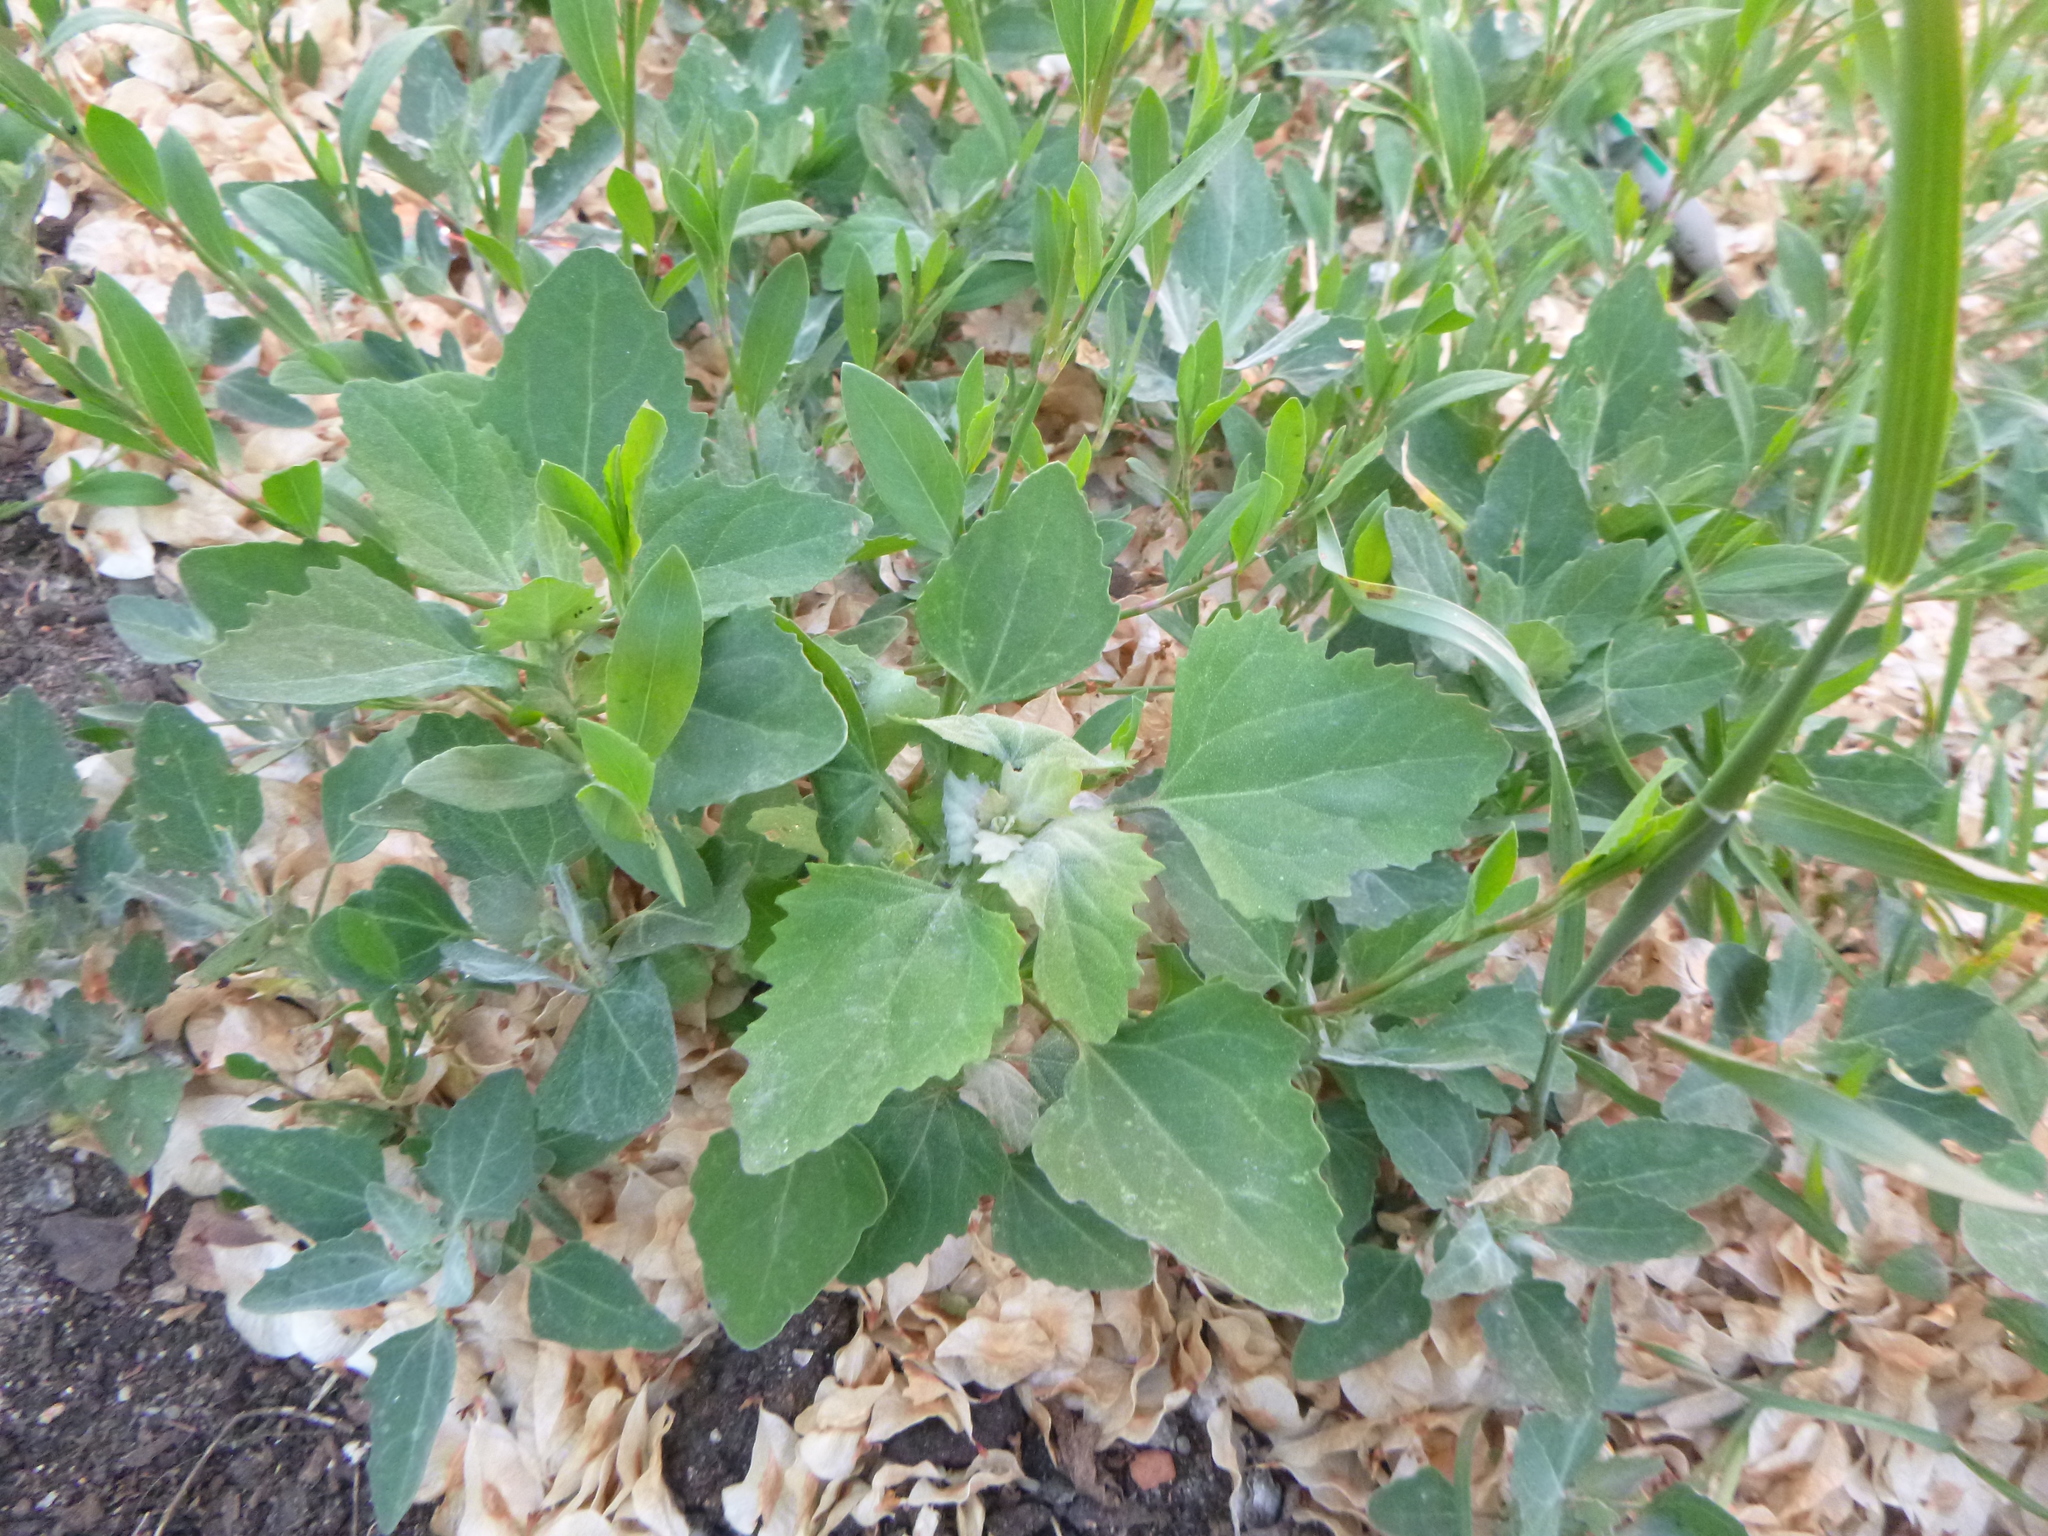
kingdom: Plantae
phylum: Tracheophyta
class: Magnoliopsida
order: Caryophyllales
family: Amaranthaceae
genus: Chenopodium
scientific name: Chenopodium album
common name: Fat-hen
